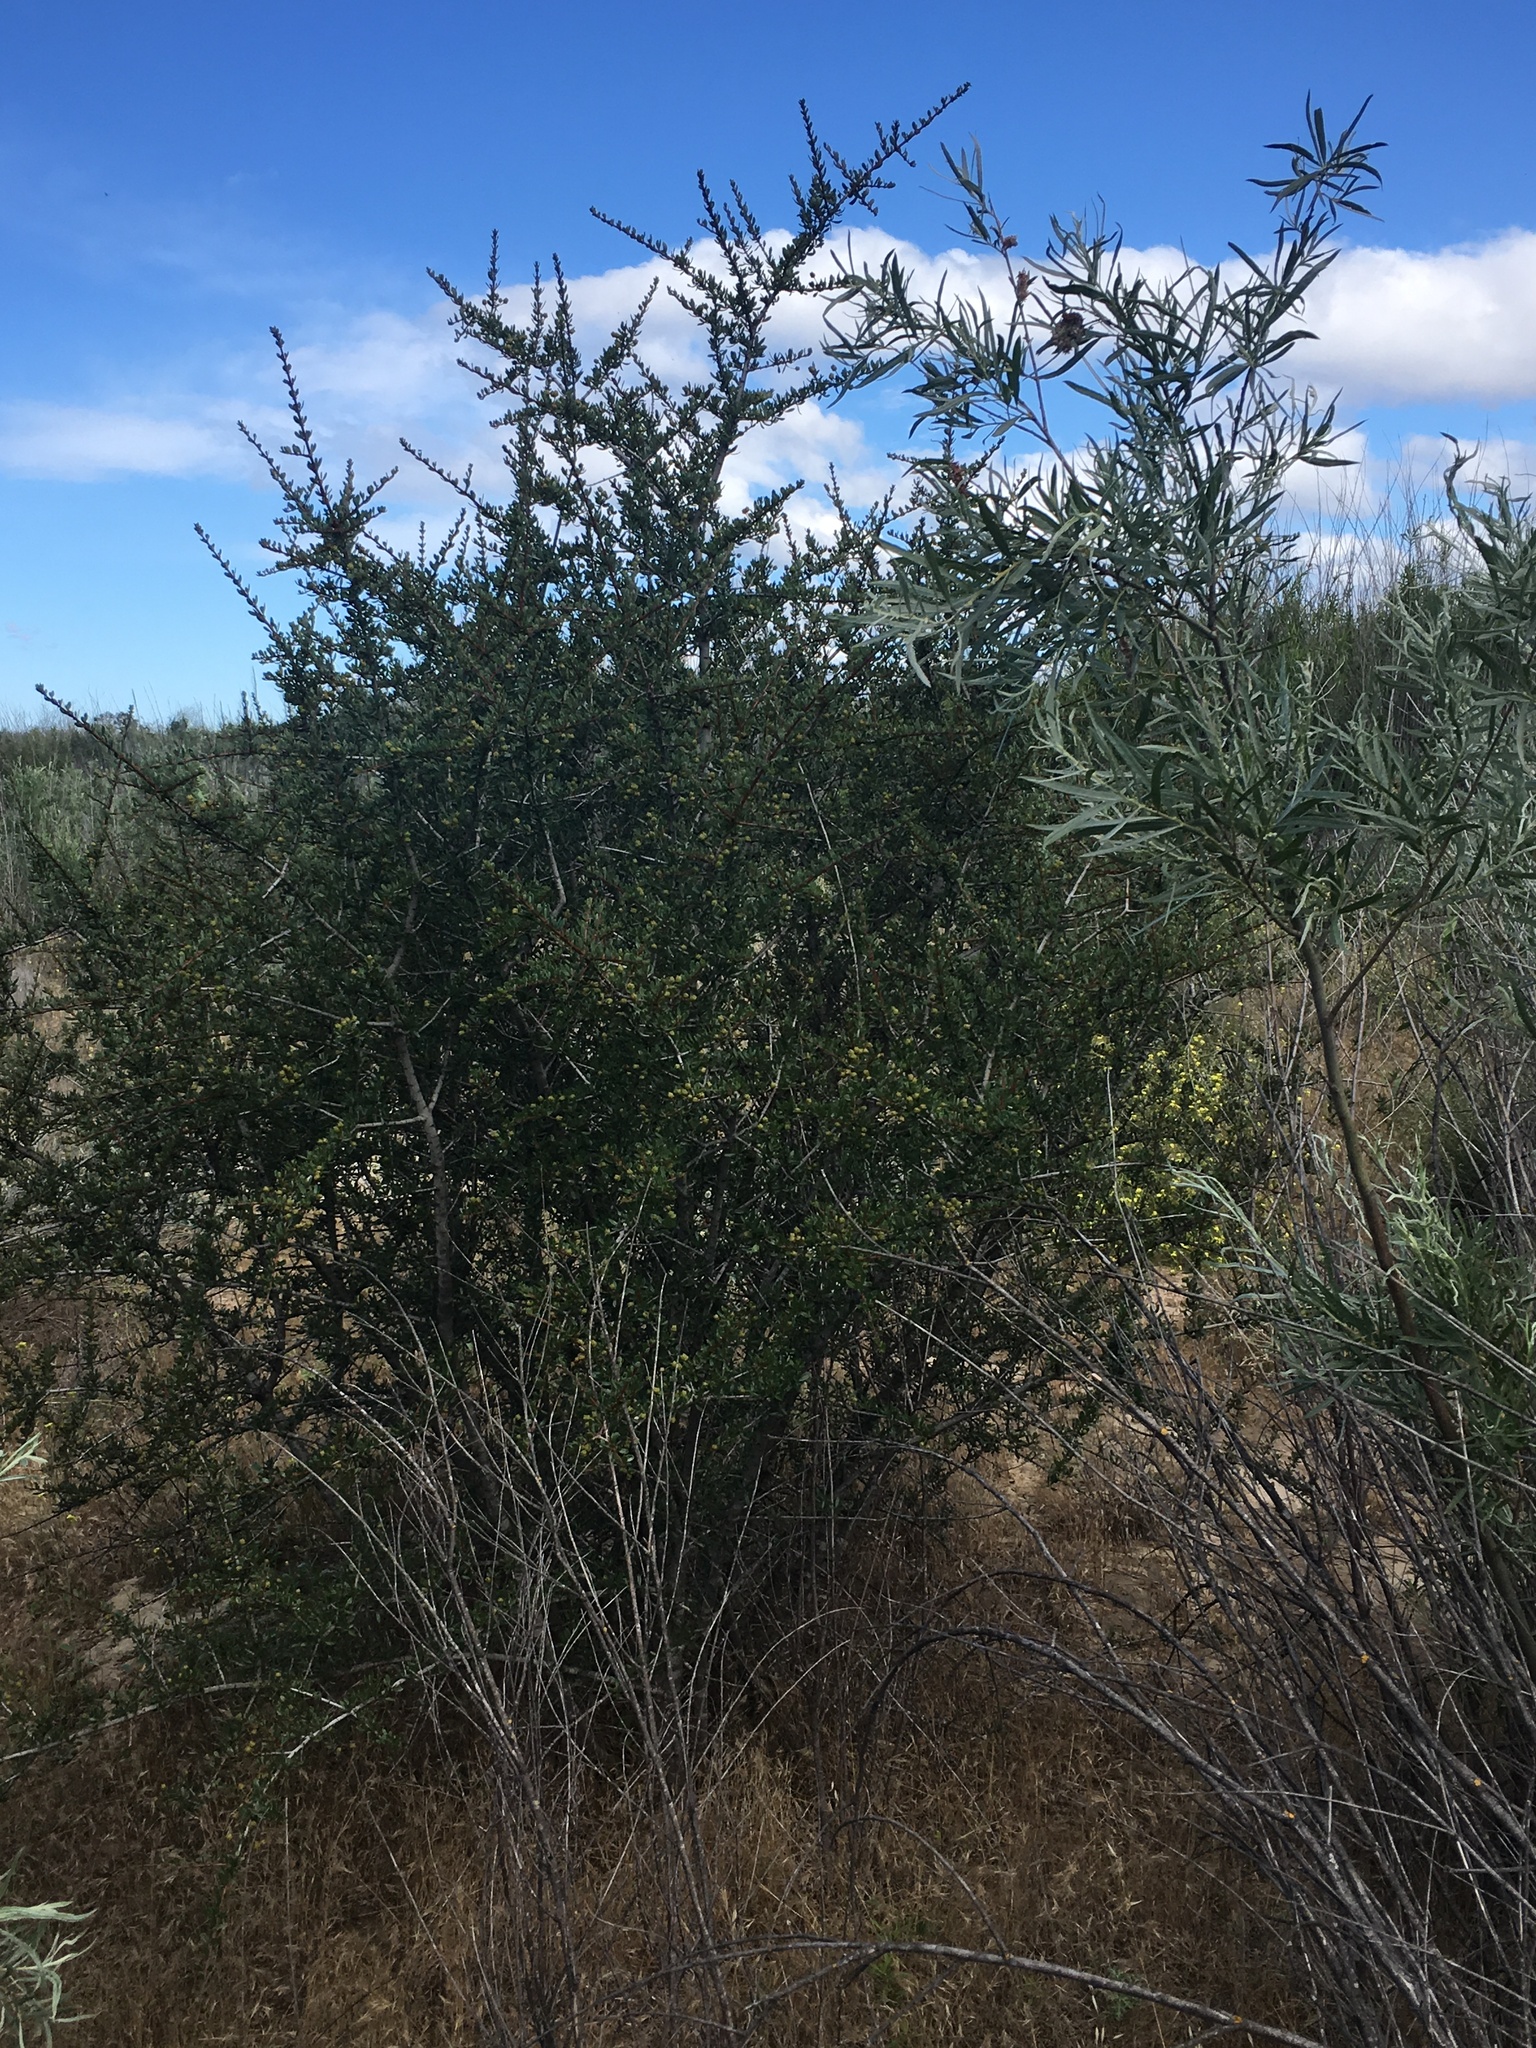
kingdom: Plantae
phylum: Tracheophyta
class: Magnoliopsida
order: Rosales
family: Rhamnaceae
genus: Ceanothus
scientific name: Ceanothus cuneatus
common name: Cuneate ceanothus
